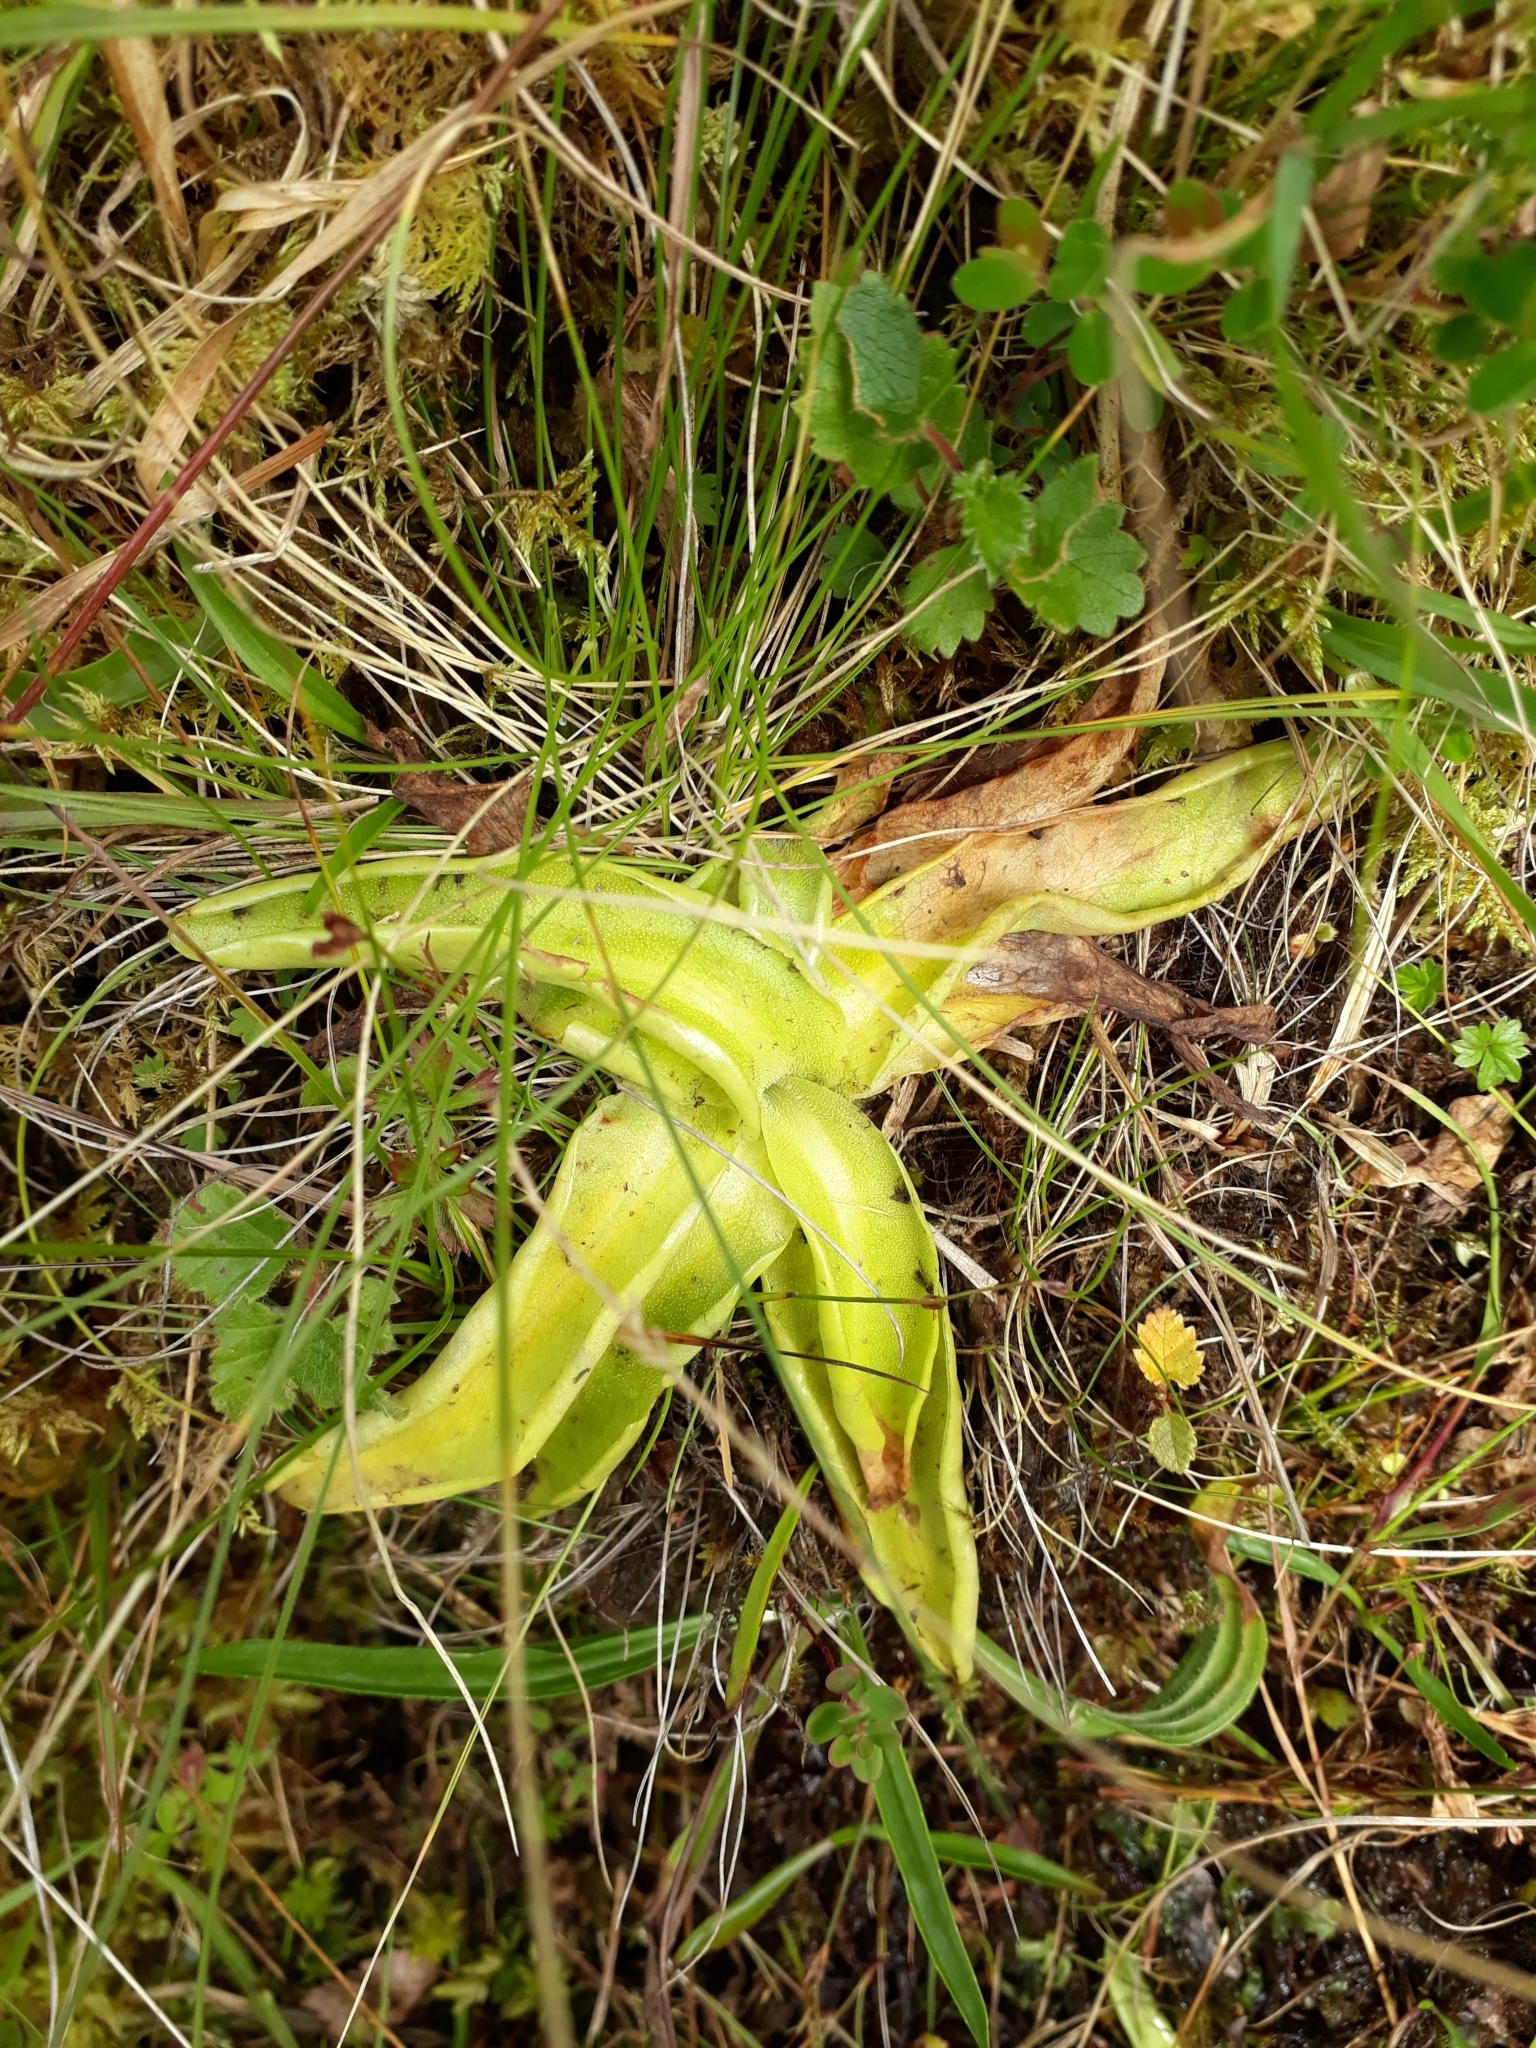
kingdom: Plantae
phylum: Tracheophyta
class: Magnoliopsida
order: Lamiales
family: Lentibulariaceae
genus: Pinguicula
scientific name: Pinguicula vulgaris
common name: Common butterwort
